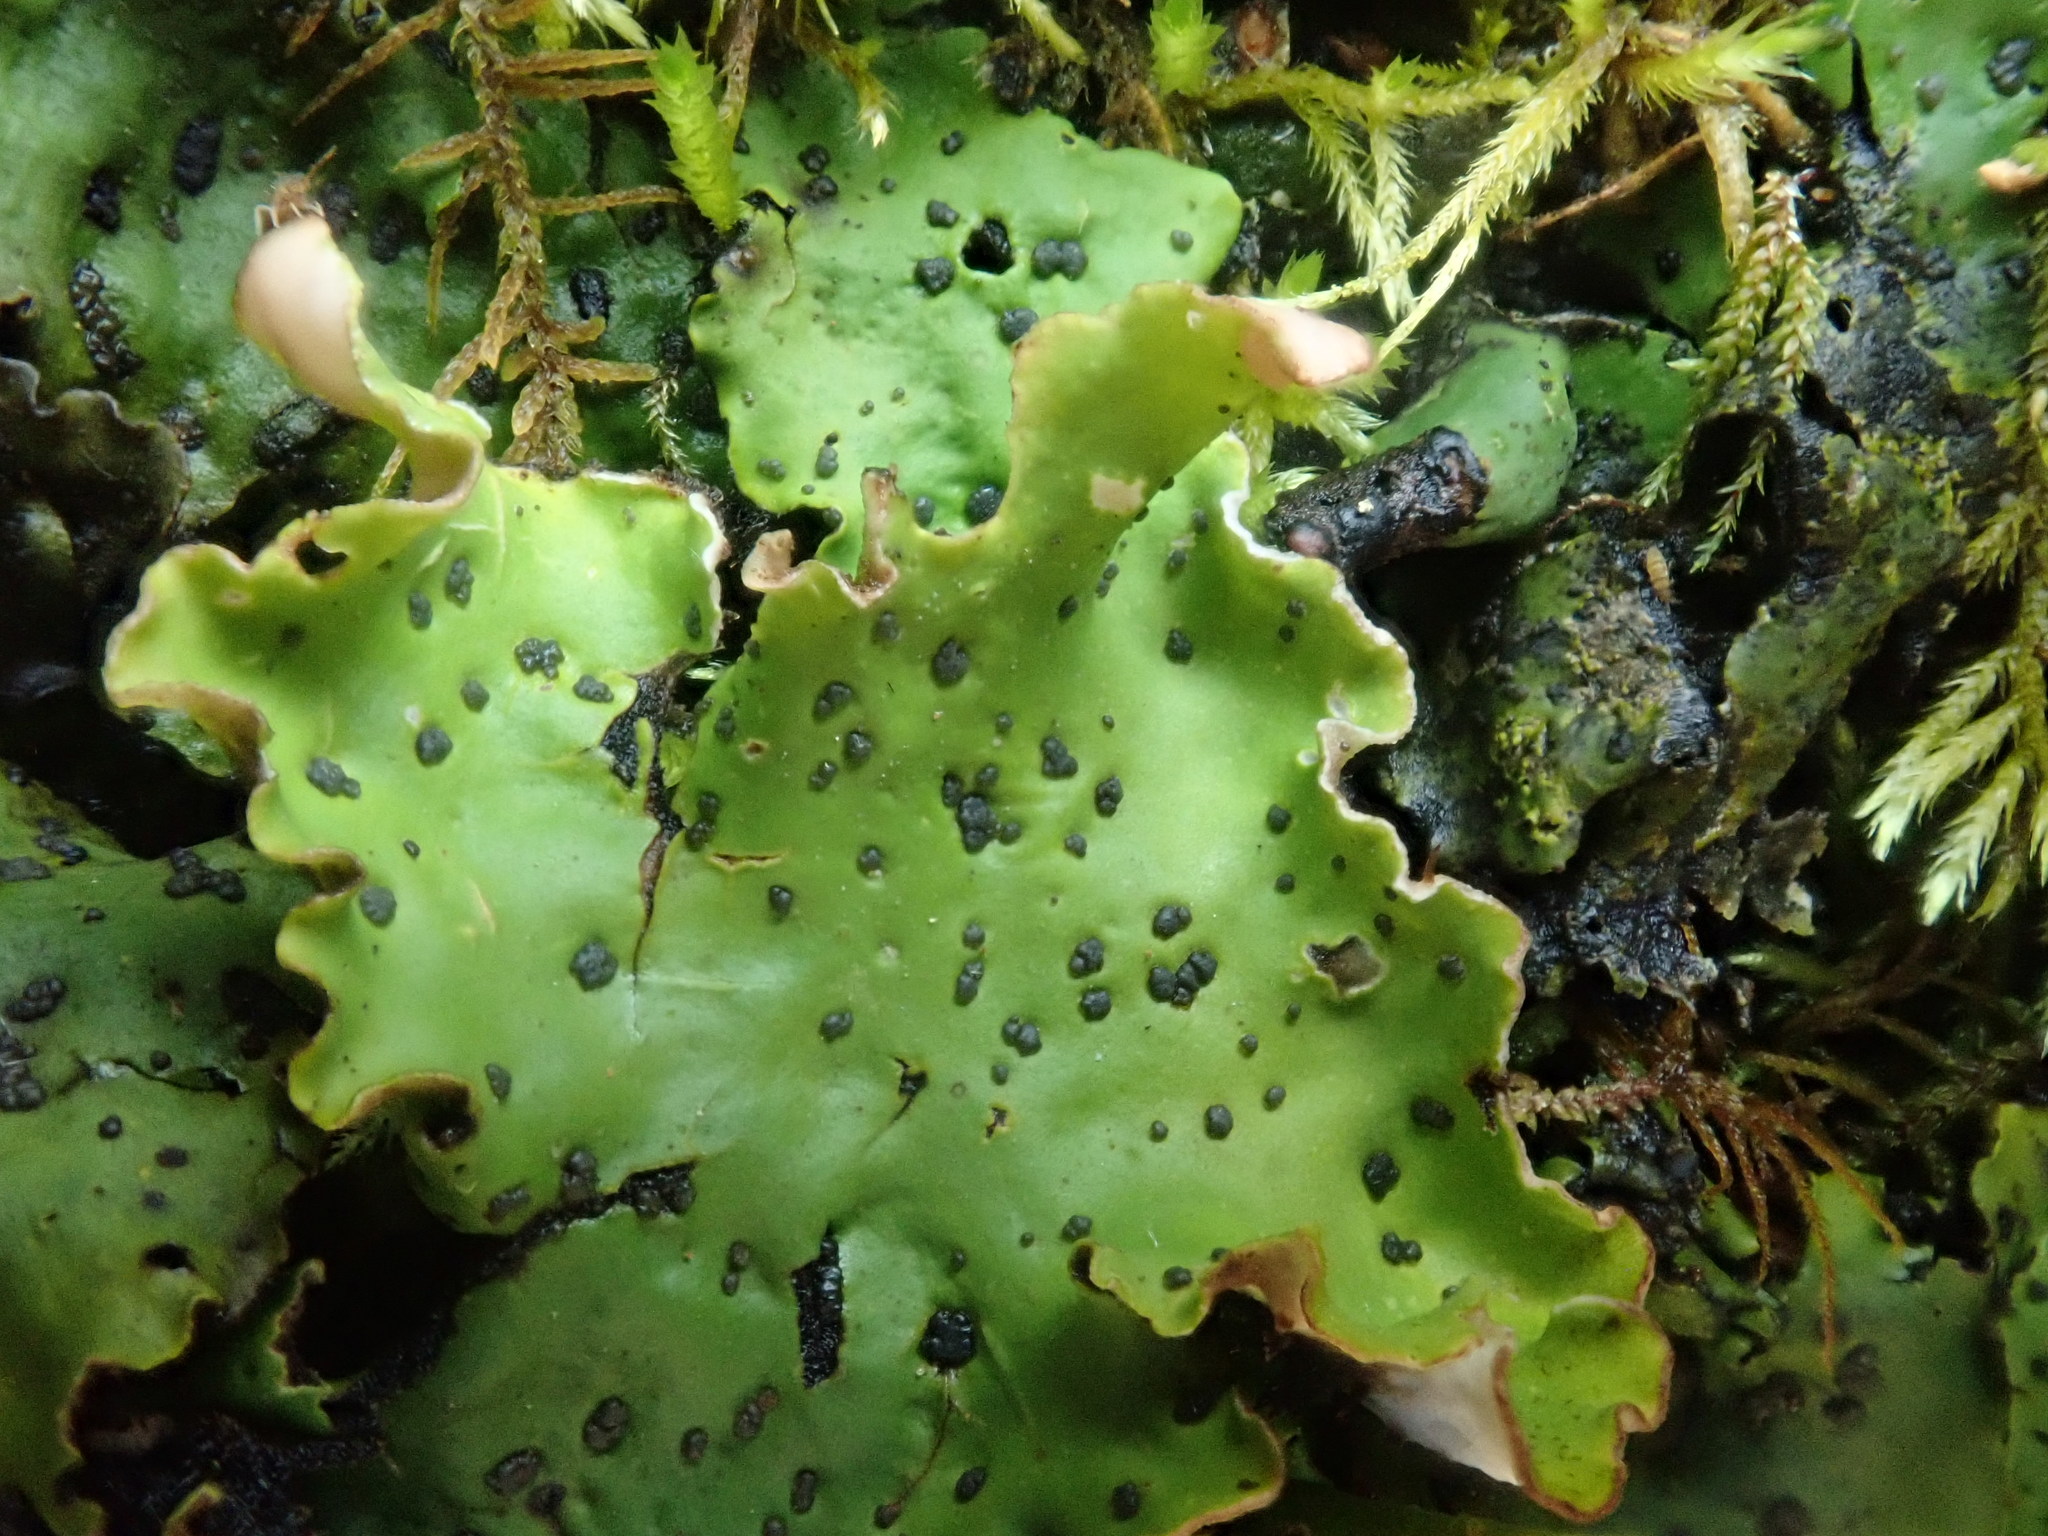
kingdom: Fungi
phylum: Ascomycota
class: Lecanoromycetes
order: Peltigerales
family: Peltigeraceae
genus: Peltigera
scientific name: Peltigera leucophlebia
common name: Ruffled freckle pelt lichen
